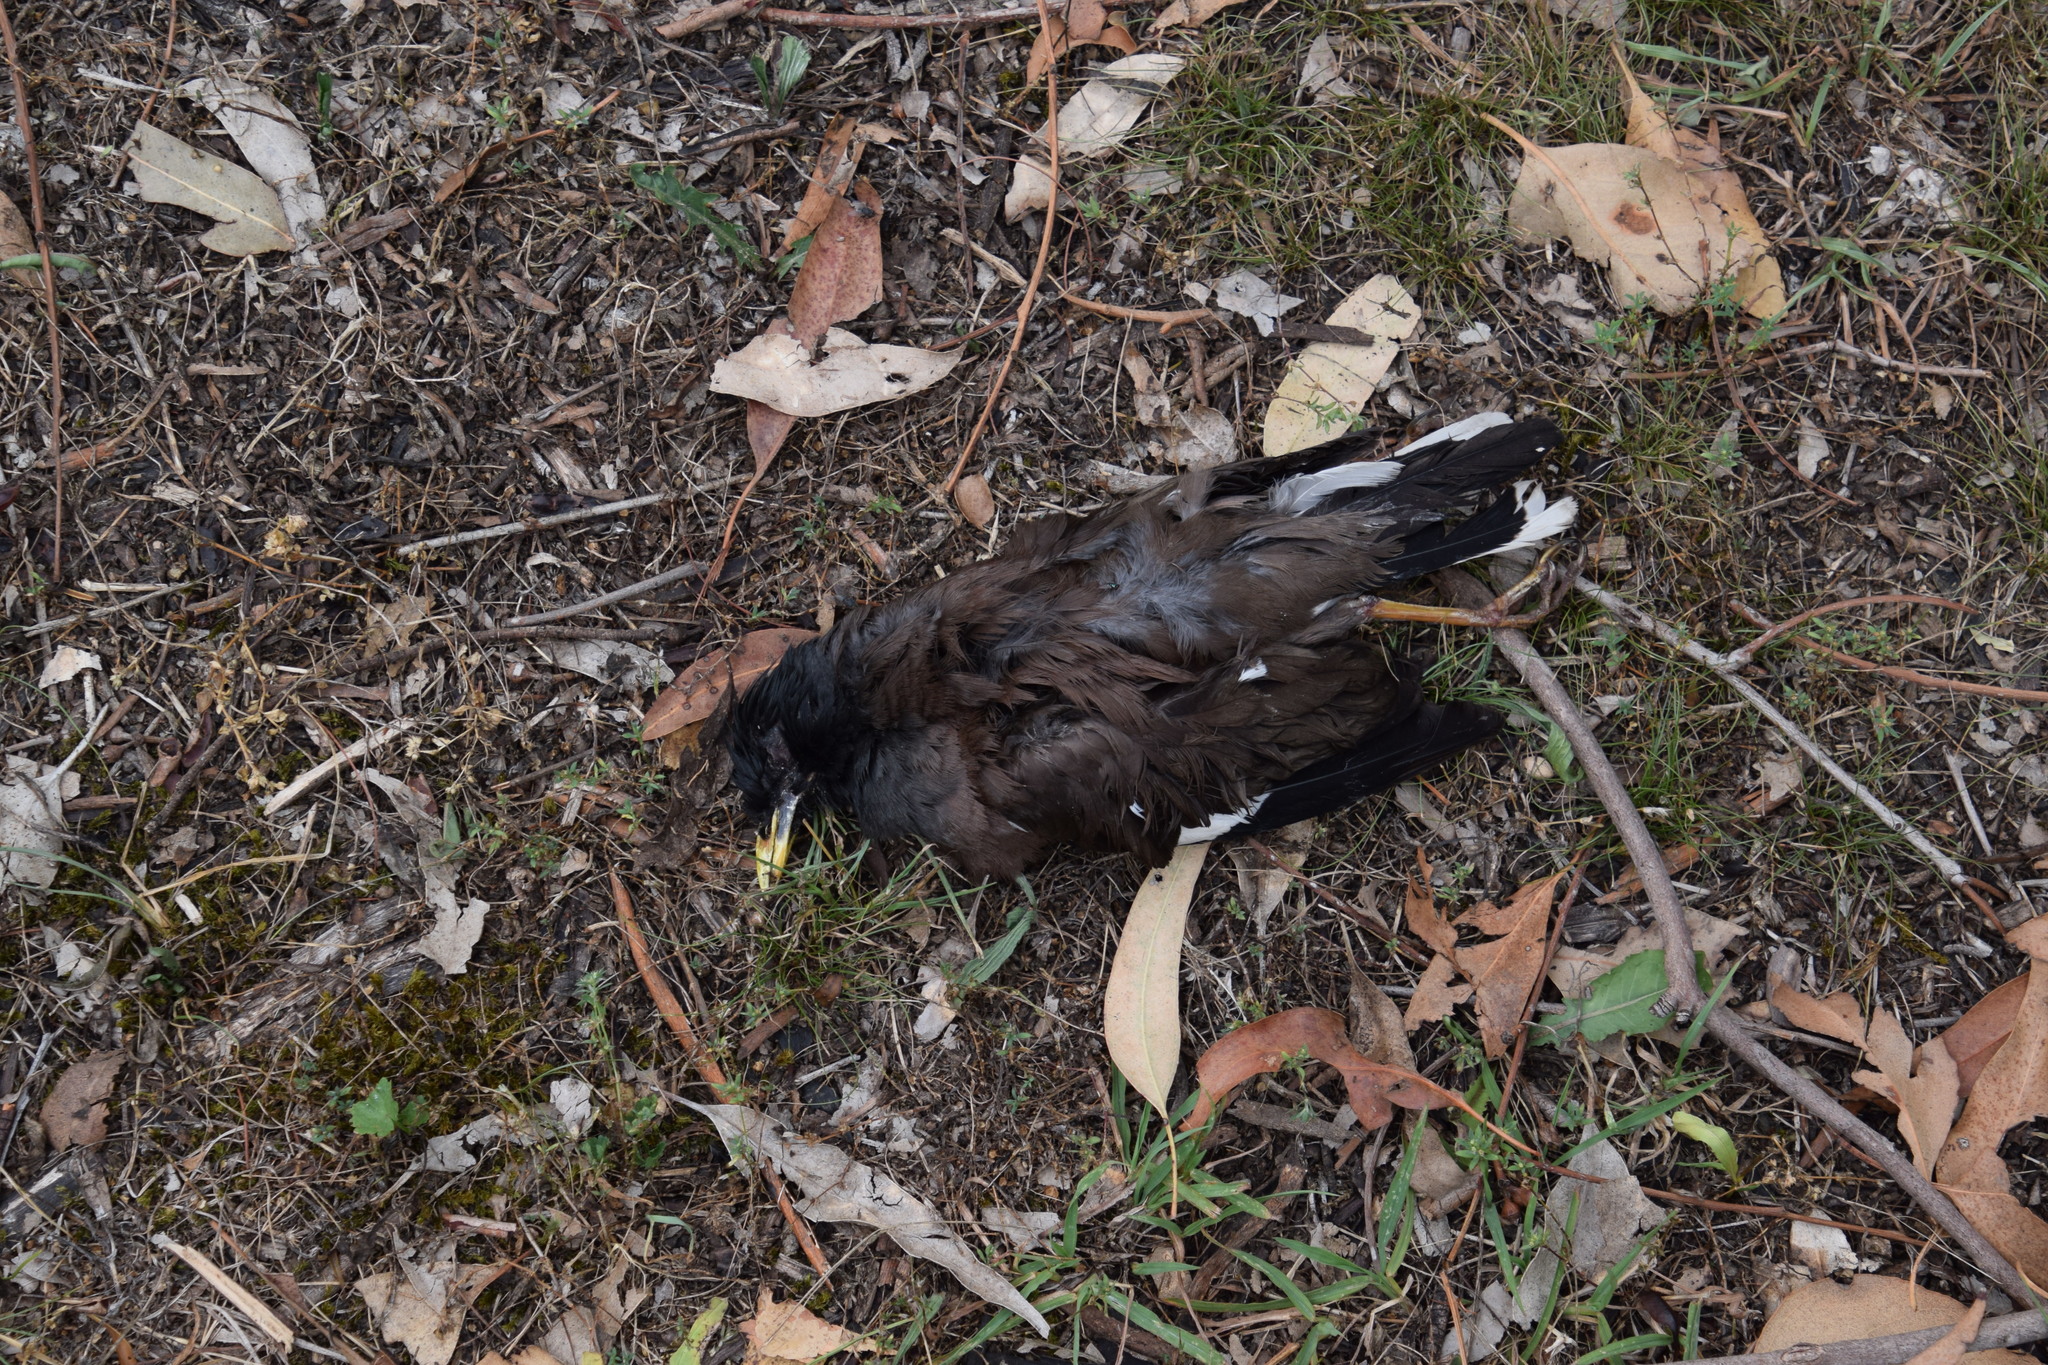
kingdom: Animalia
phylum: Chordata
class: Aves
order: Passeriformes
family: Sturnidae
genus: Acridotheres
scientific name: Acridotheres tristis
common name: Common myna
